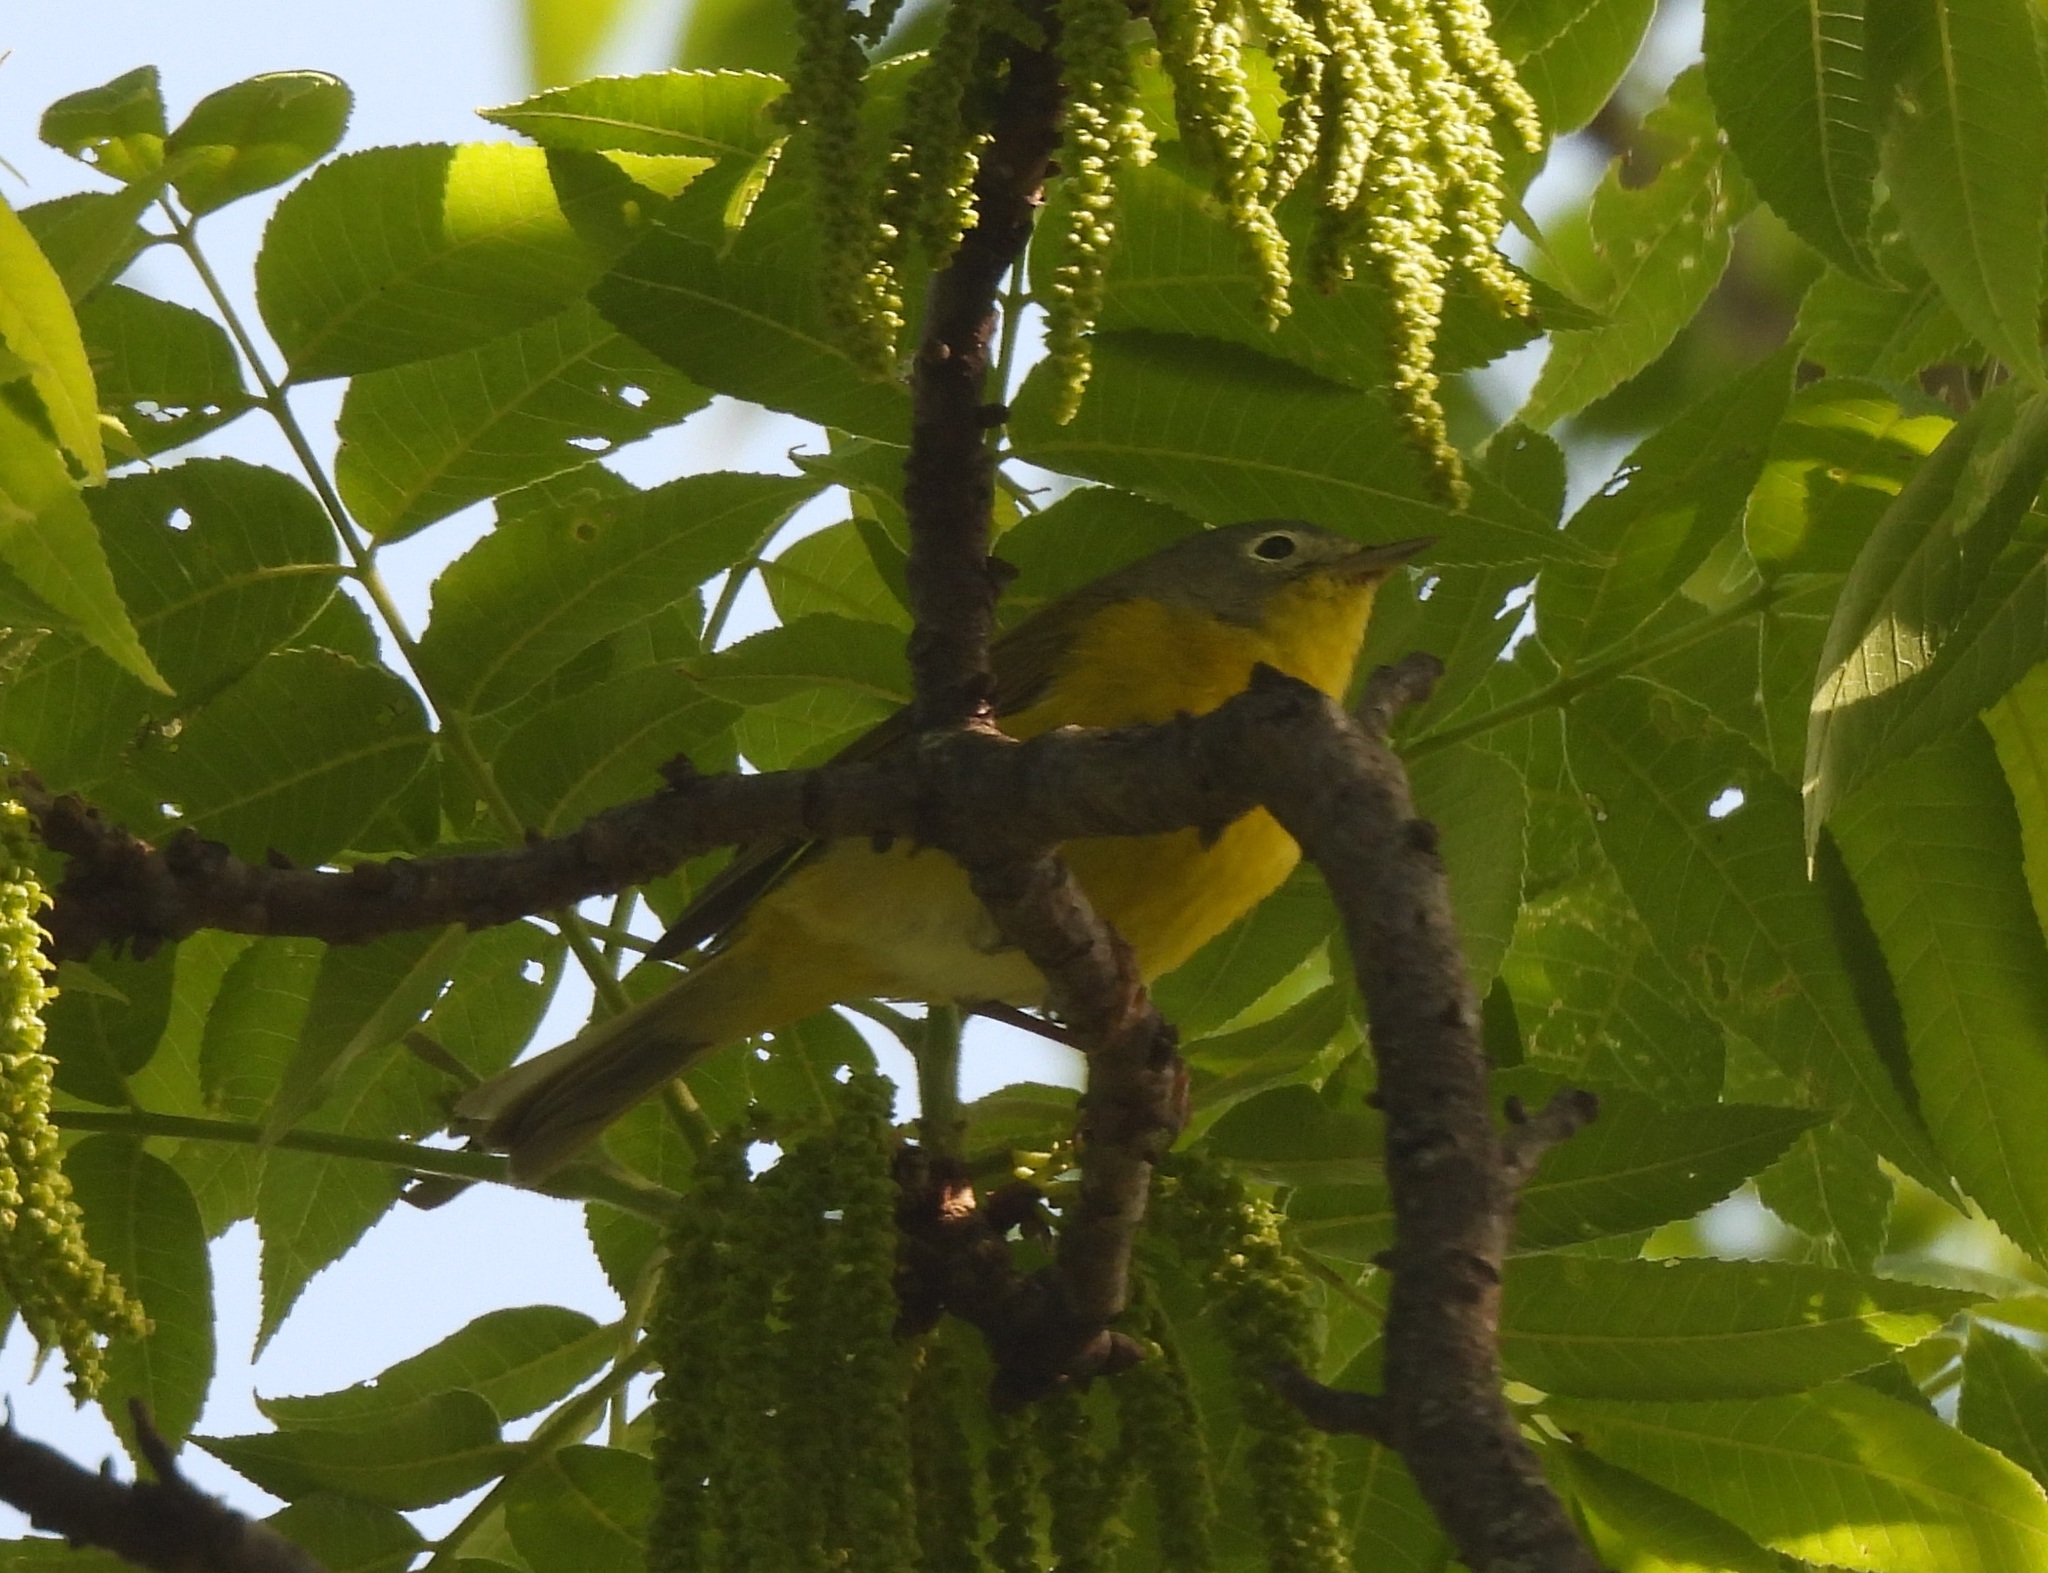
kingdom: Animalia
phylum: Chordata
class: Aves
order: Passeriformes
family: Parulidae
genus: Leiothlypis
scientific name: Leiothlypis ruficapilla
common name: Nashville warbler
